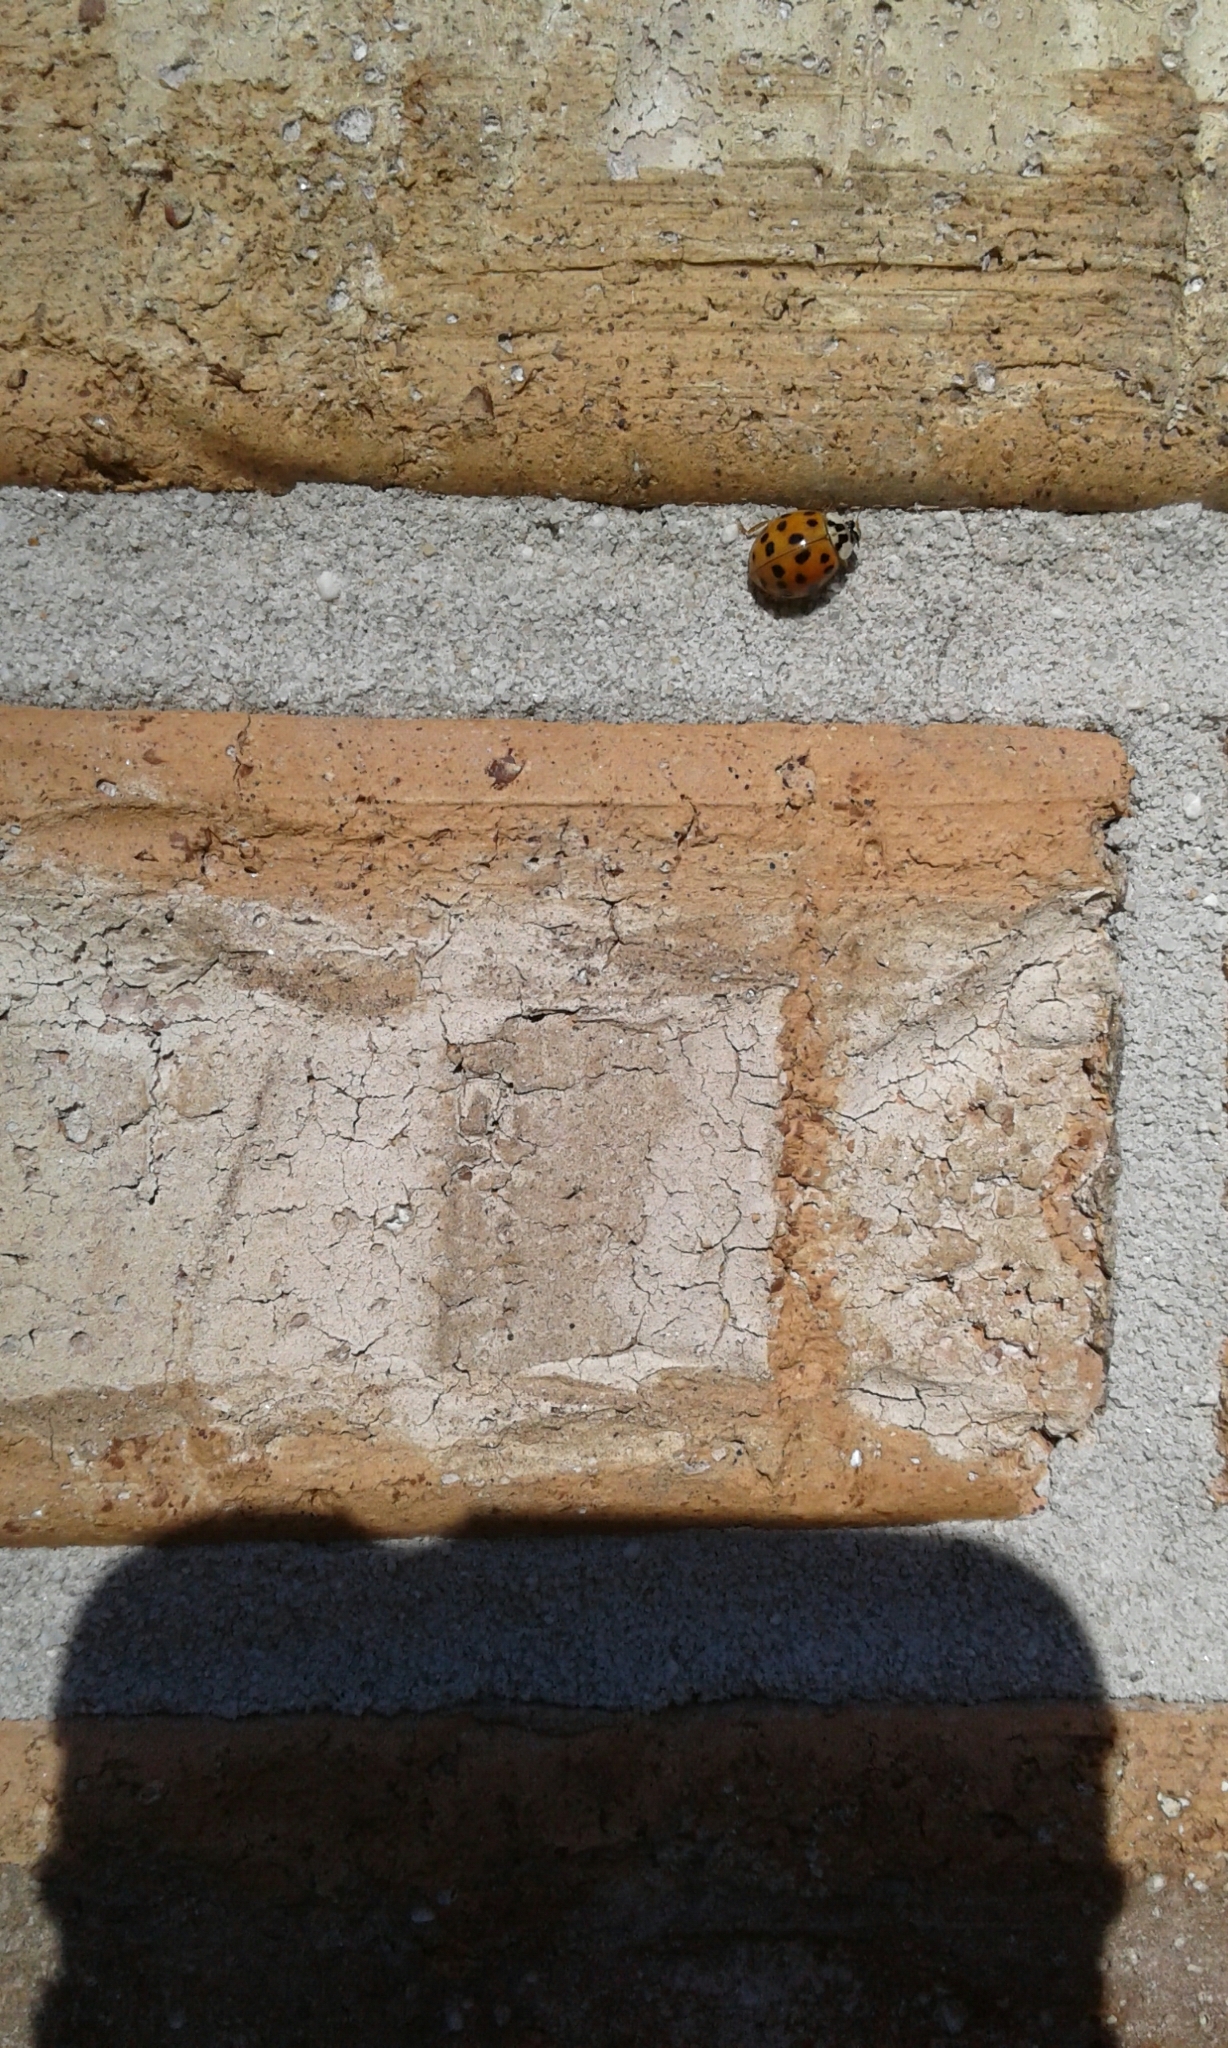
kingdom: Animalia
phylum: Arthropoda
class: Insecta
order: Coleoptera
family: Coccinellidae
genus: Harmonia
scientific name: Harmonia axyridis
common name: Harlequin ladybird
